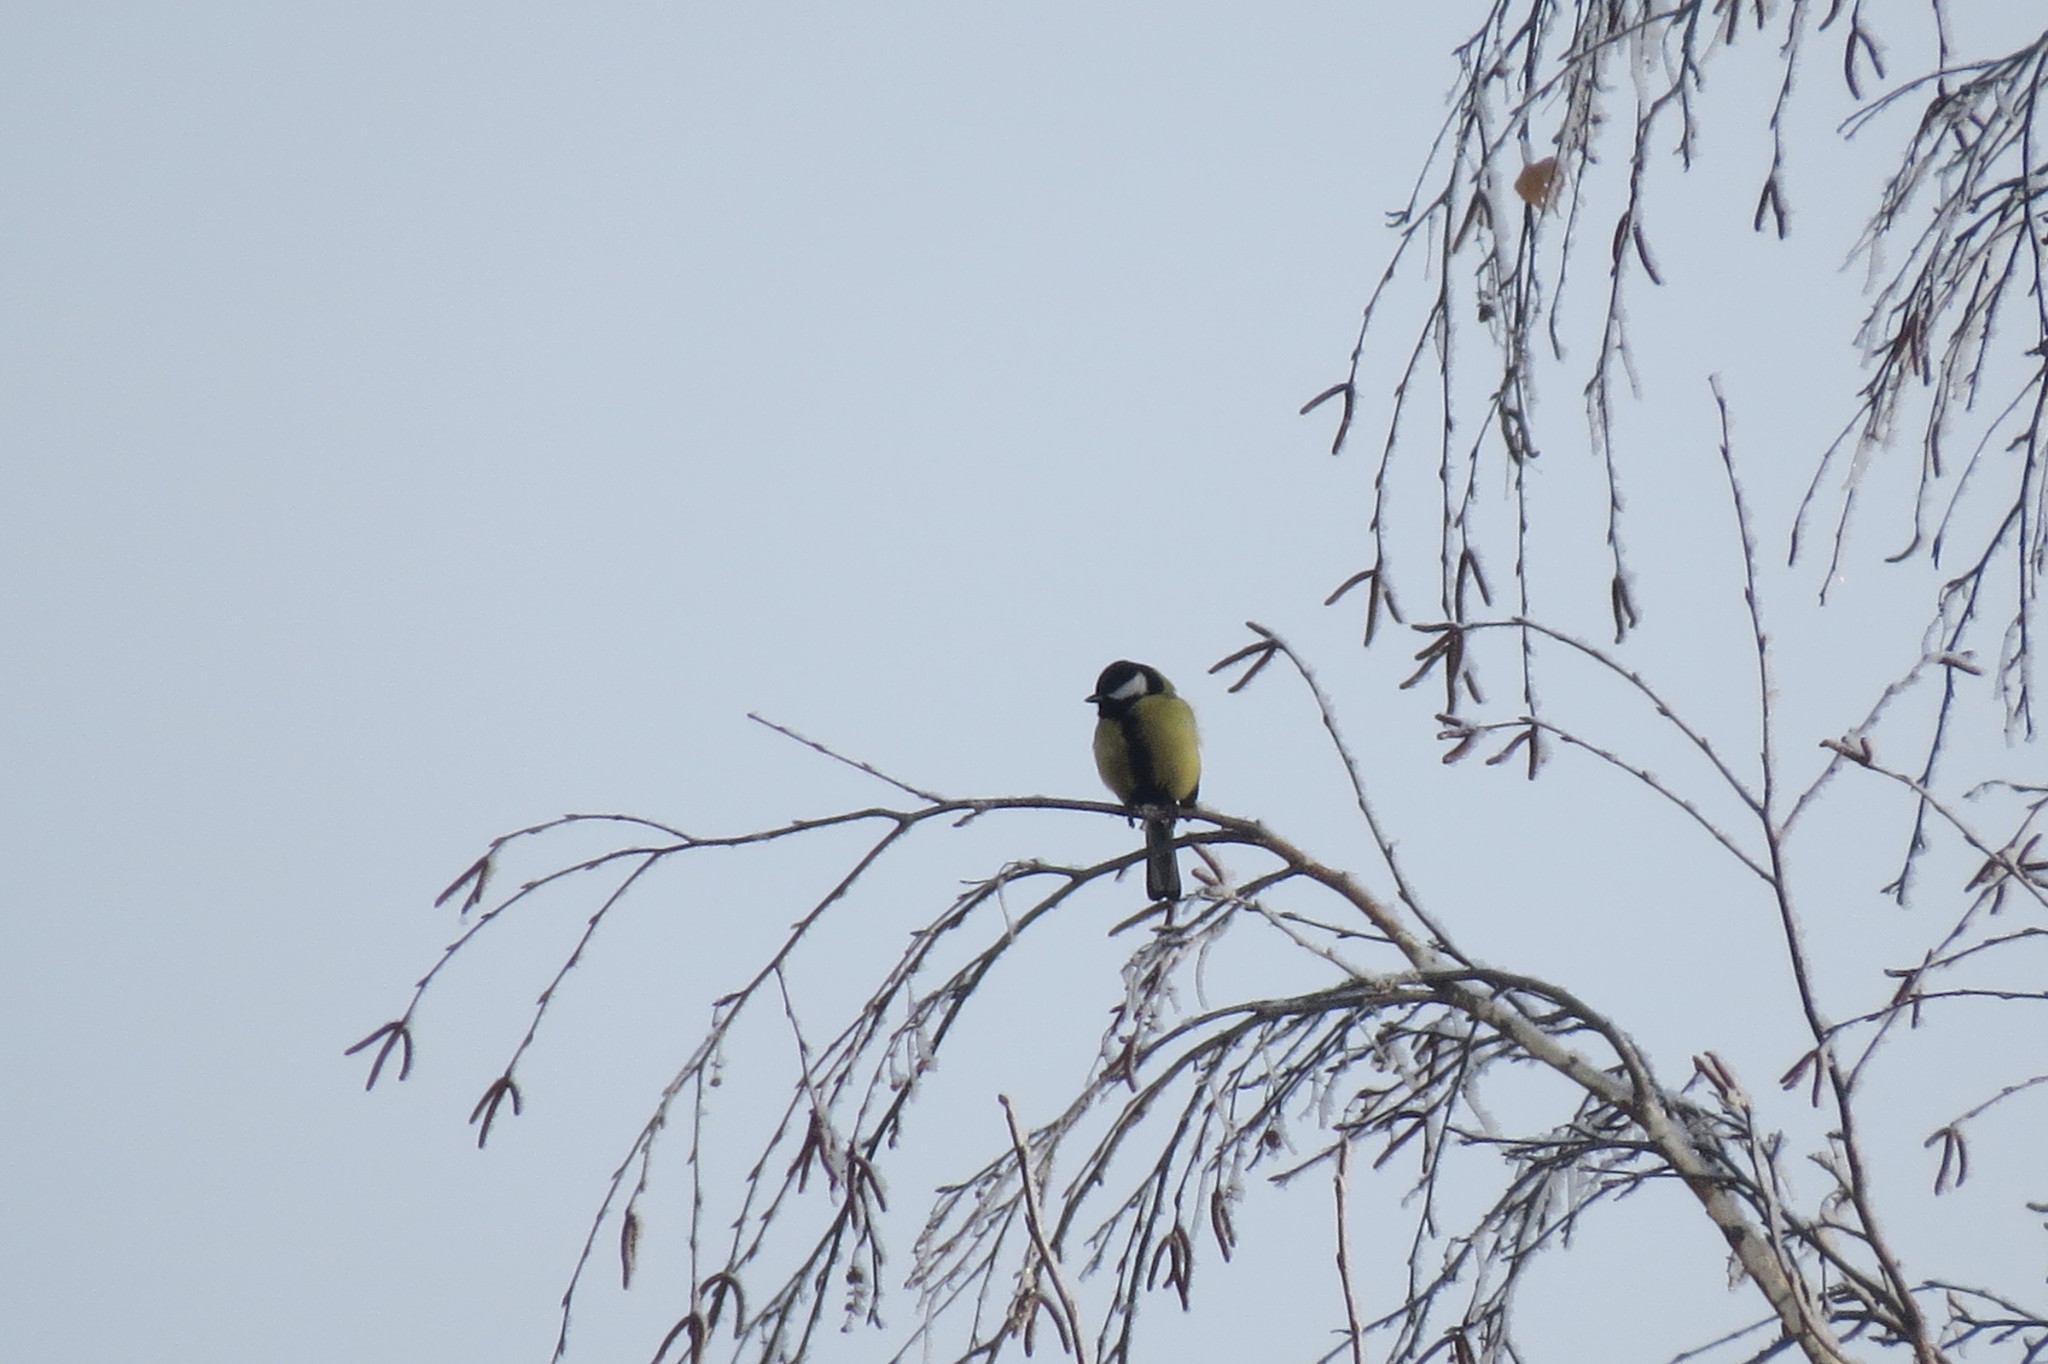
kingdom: Animalia
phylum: Chordata
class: Aves
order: Passeriformes
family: Paridae
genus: Parus
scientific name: Parus major
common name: Great tit
